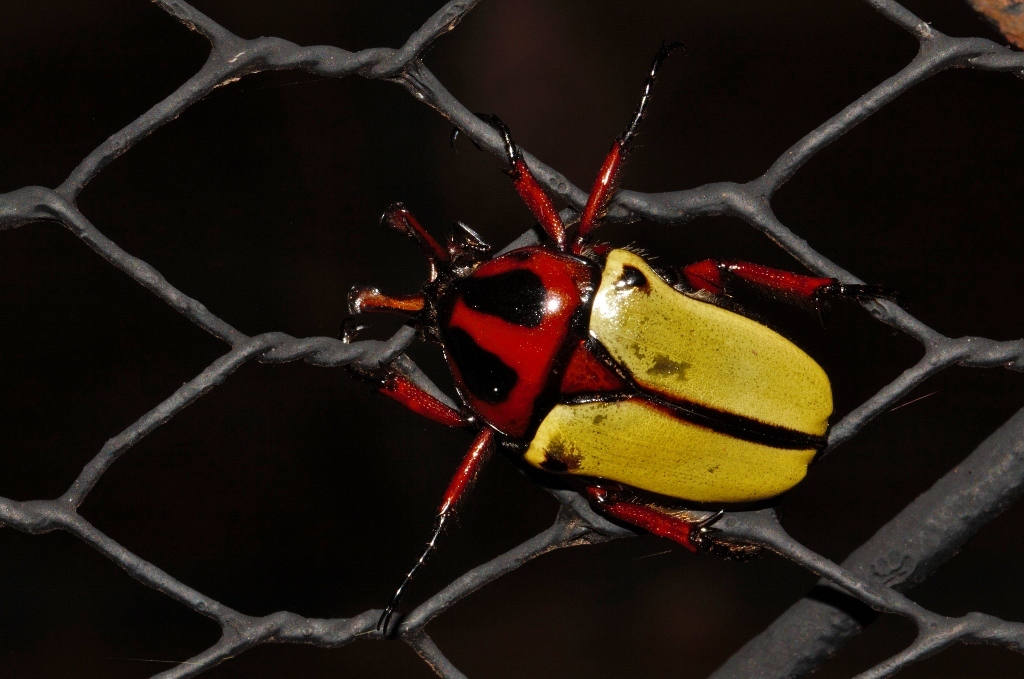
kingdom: Animalia
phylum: Arthropoda
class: Insecta
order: Coleoptera
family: Scarabaeidae
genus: Anisorrhina
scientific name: Anisorrhina algoensis
